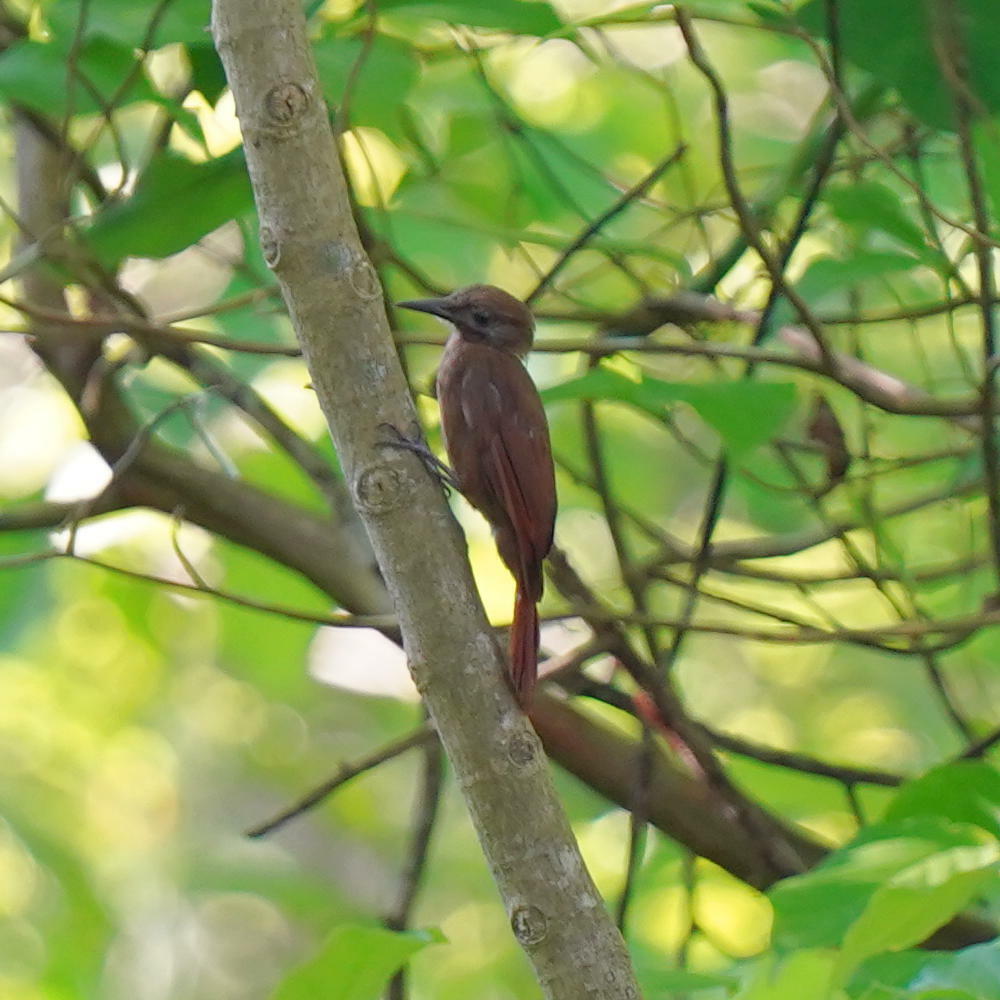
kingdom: Animalia
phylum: Chordata
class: Aves
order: Passeriformes
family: Furnariidae
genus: Dendrocincla
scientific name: Dendrocincla fuliginosa
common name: Plain-brown woodcreeper
